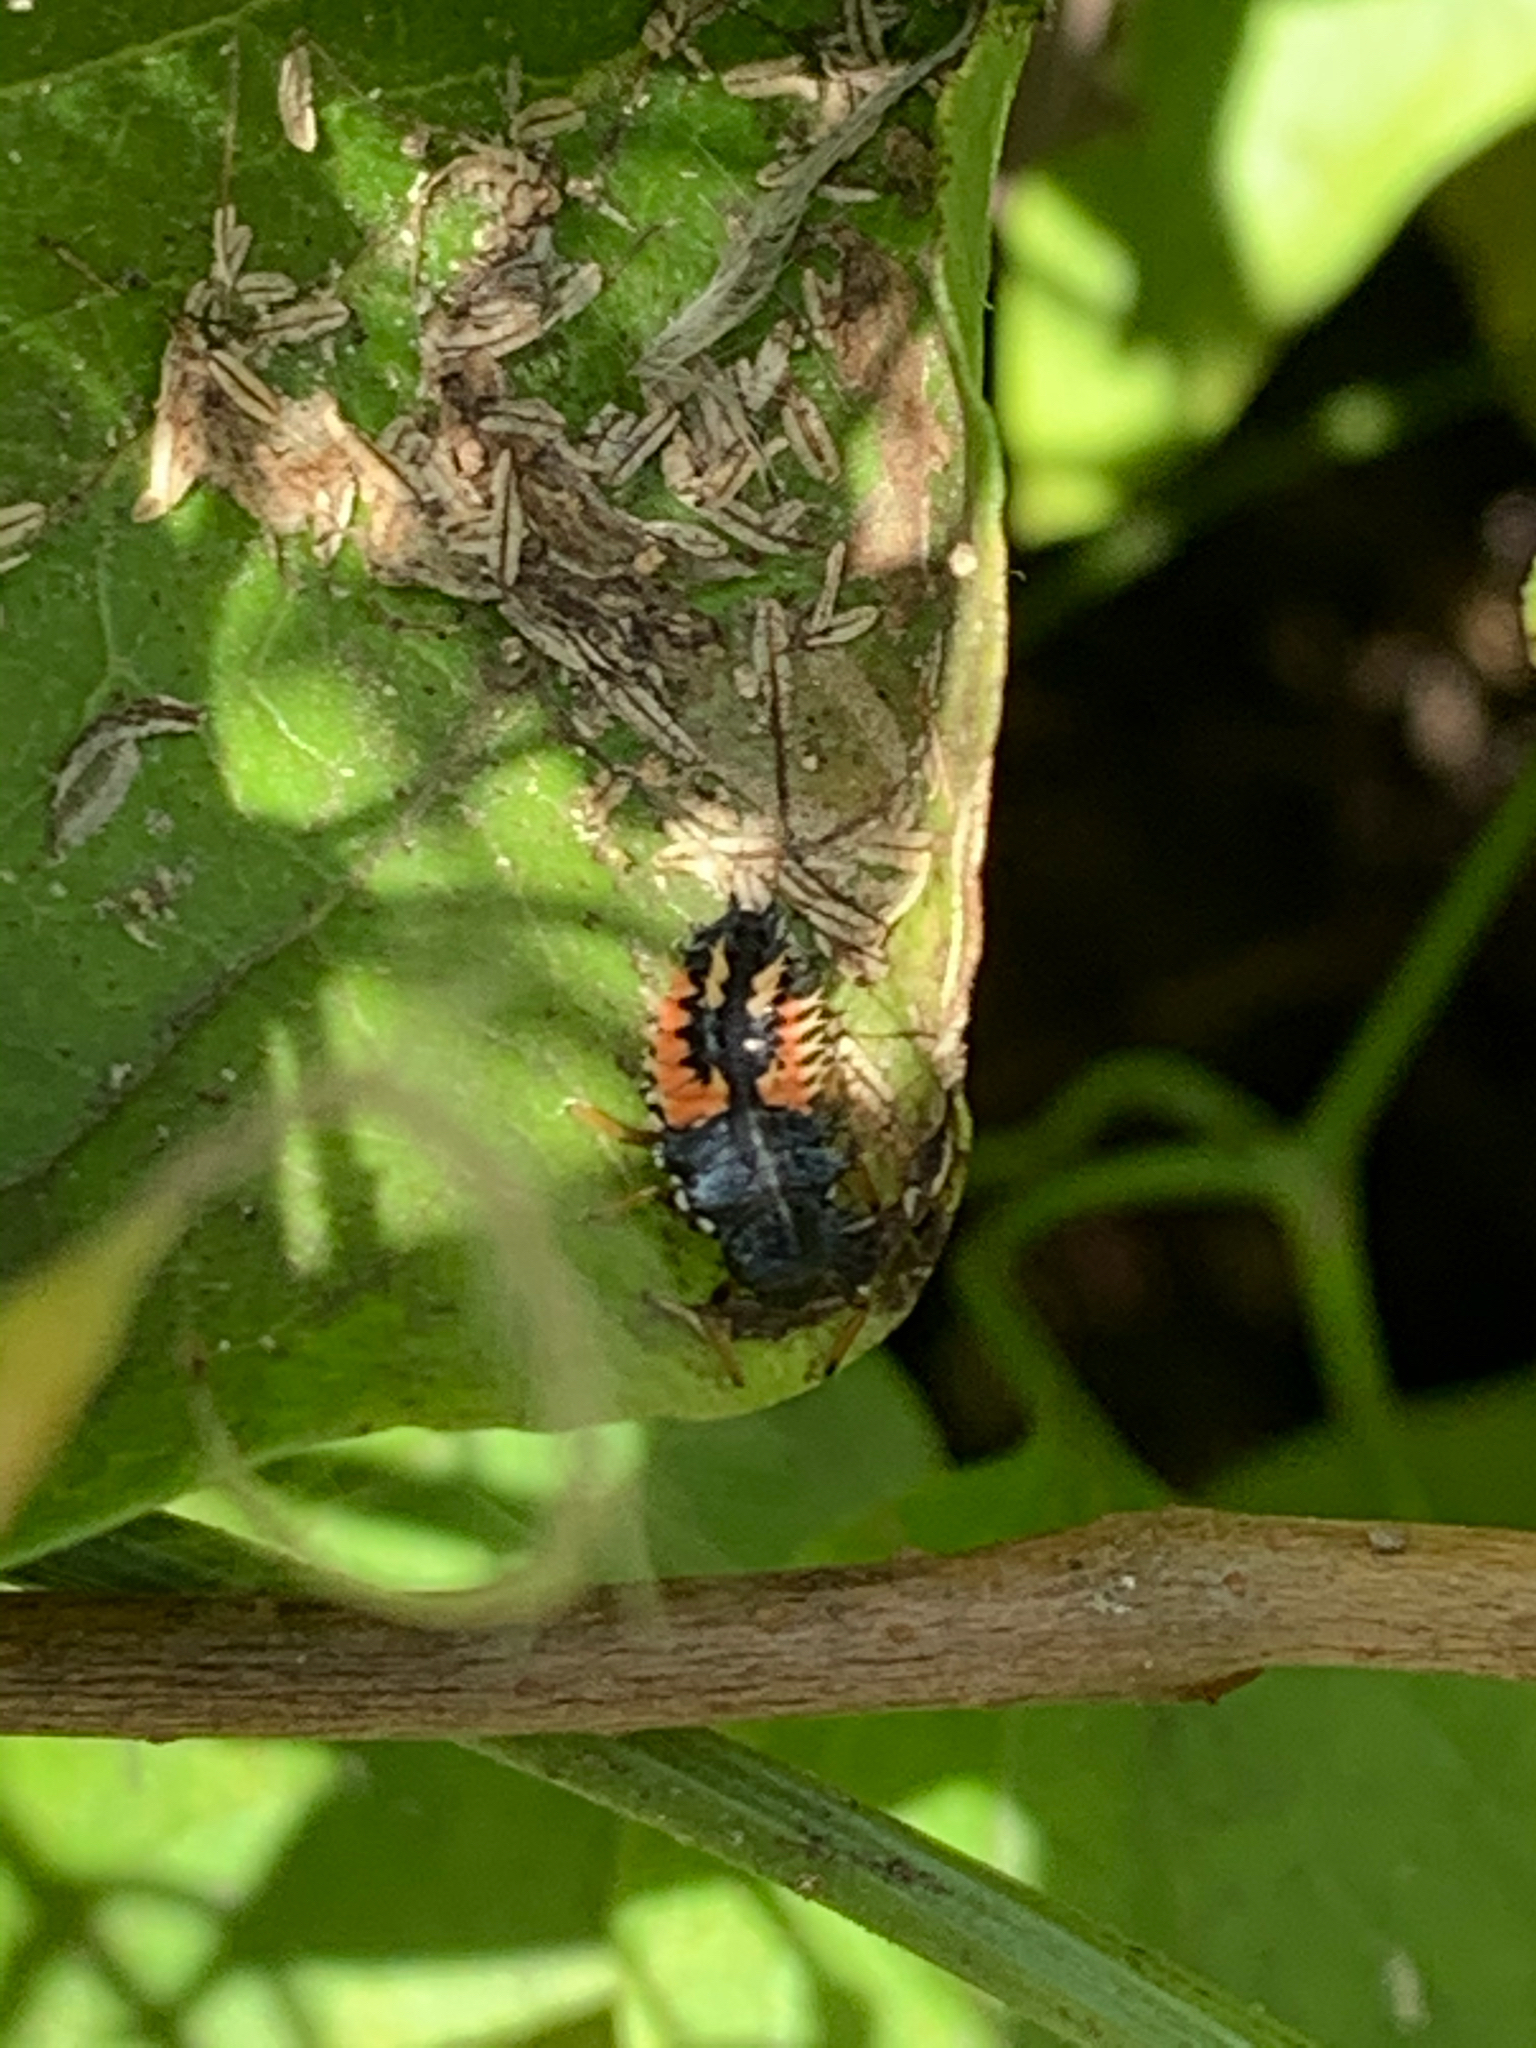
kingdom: Animalia
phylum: Arthropoda
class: Insecta
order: Coleoptera
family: Coccinellidae
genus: Harmonia
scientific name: Harmonia axyridis
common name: Harlequin ladybird
